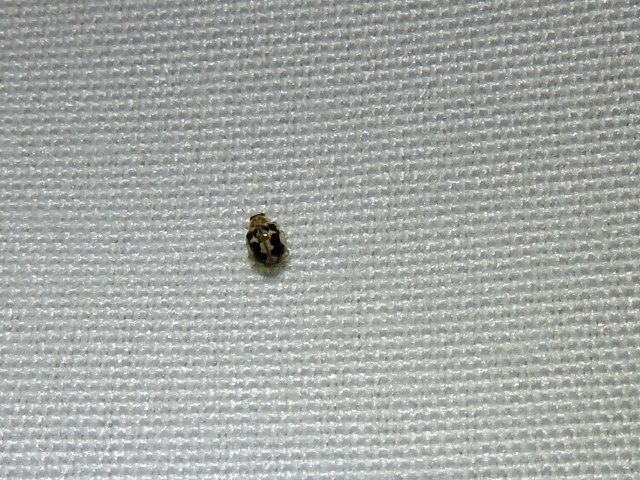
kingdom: Animalia
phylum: Arthropoda
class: Insecta
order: Coleoptera
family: Coccinellidae
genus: Psyllobora
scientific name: Psyllobora renifer
